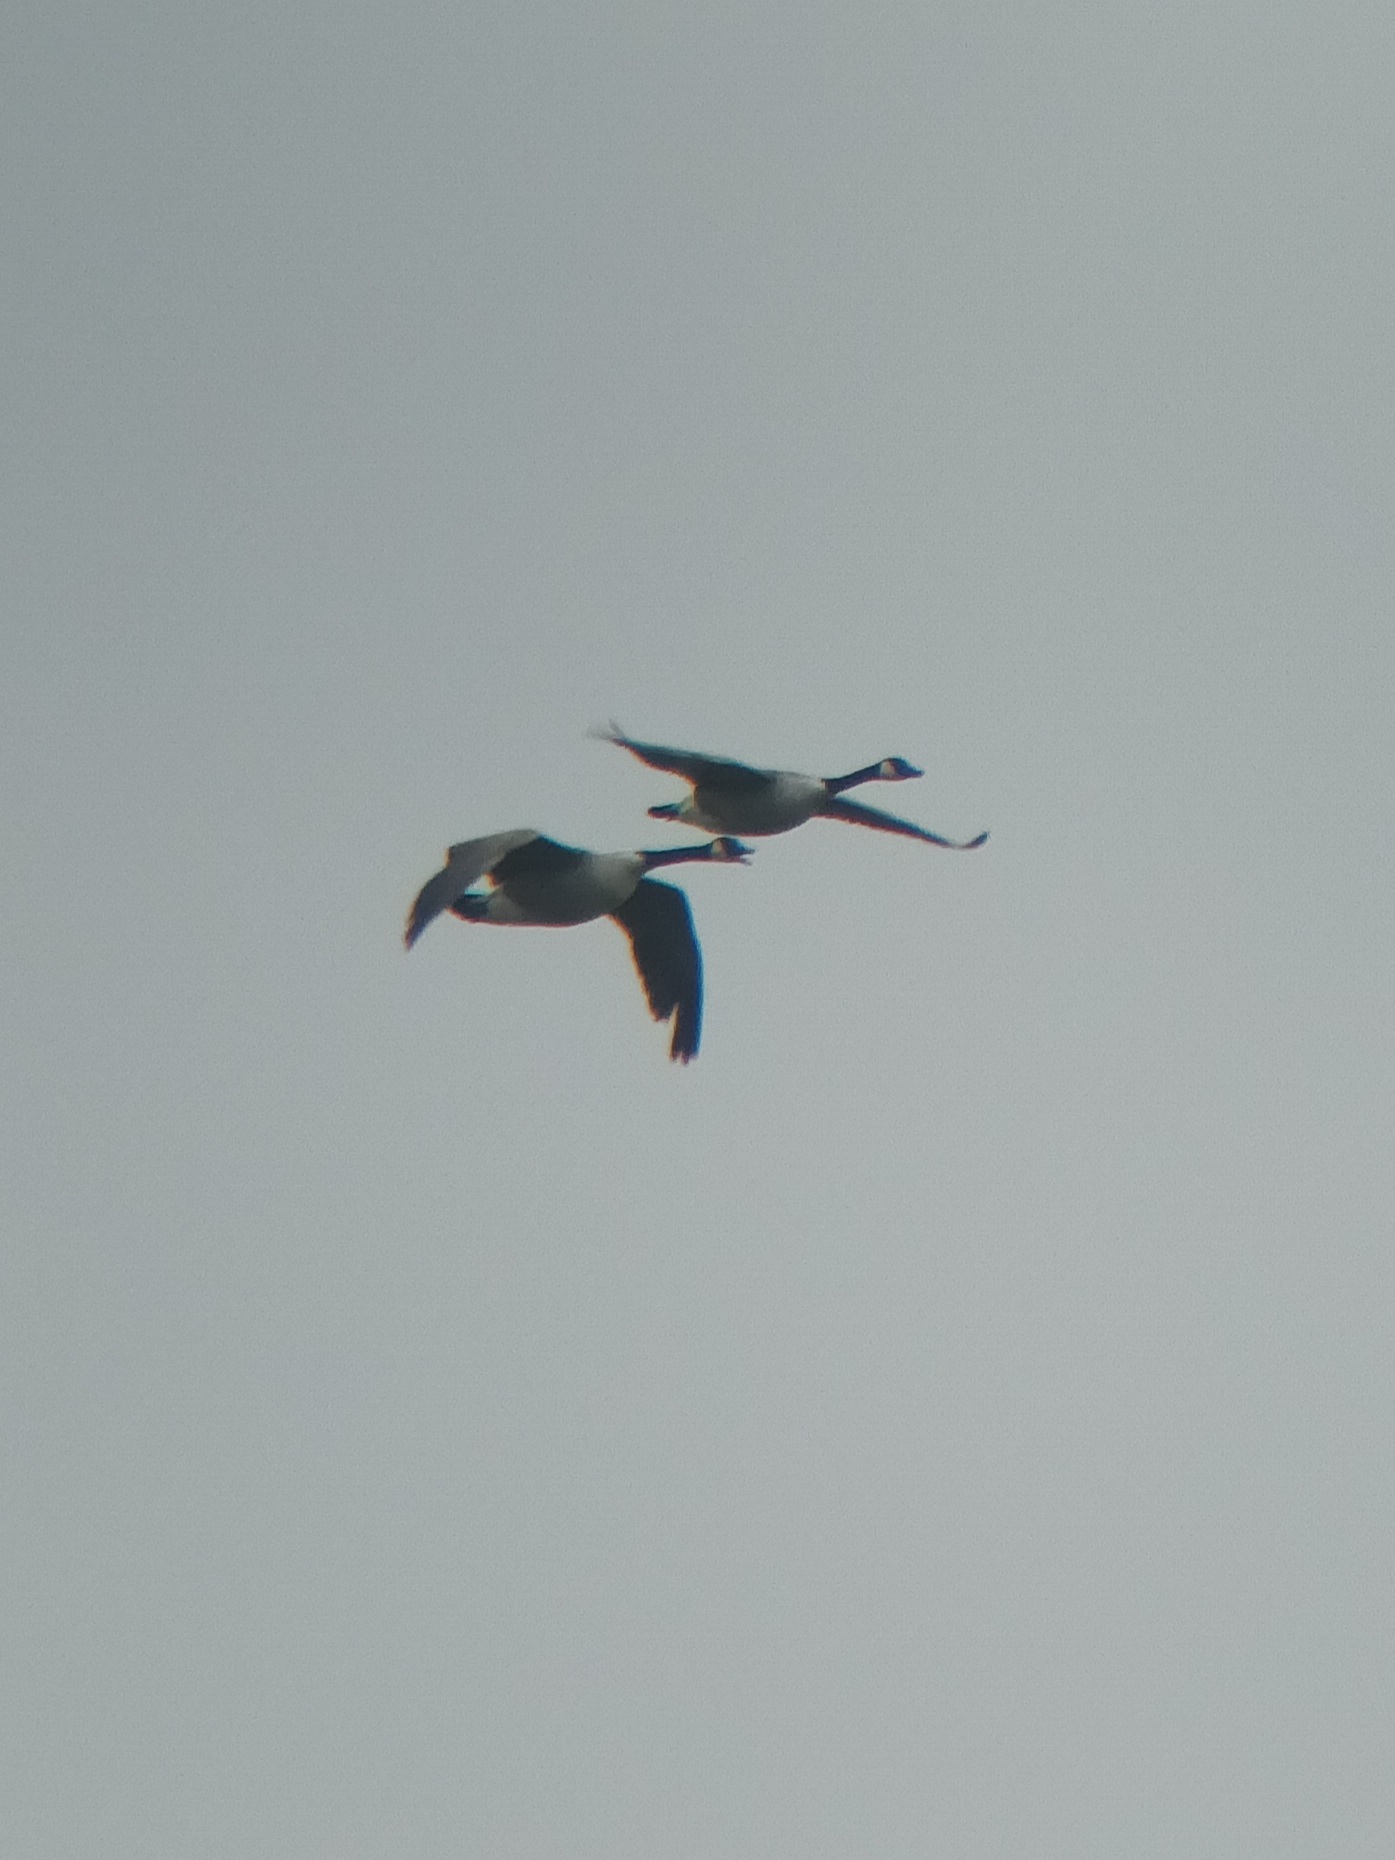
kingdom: Animalia
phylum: Chordata
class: Aves
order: Anseriformes
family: Anatidae
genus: Branta
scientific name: Branta canadensis
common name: Canada goose
